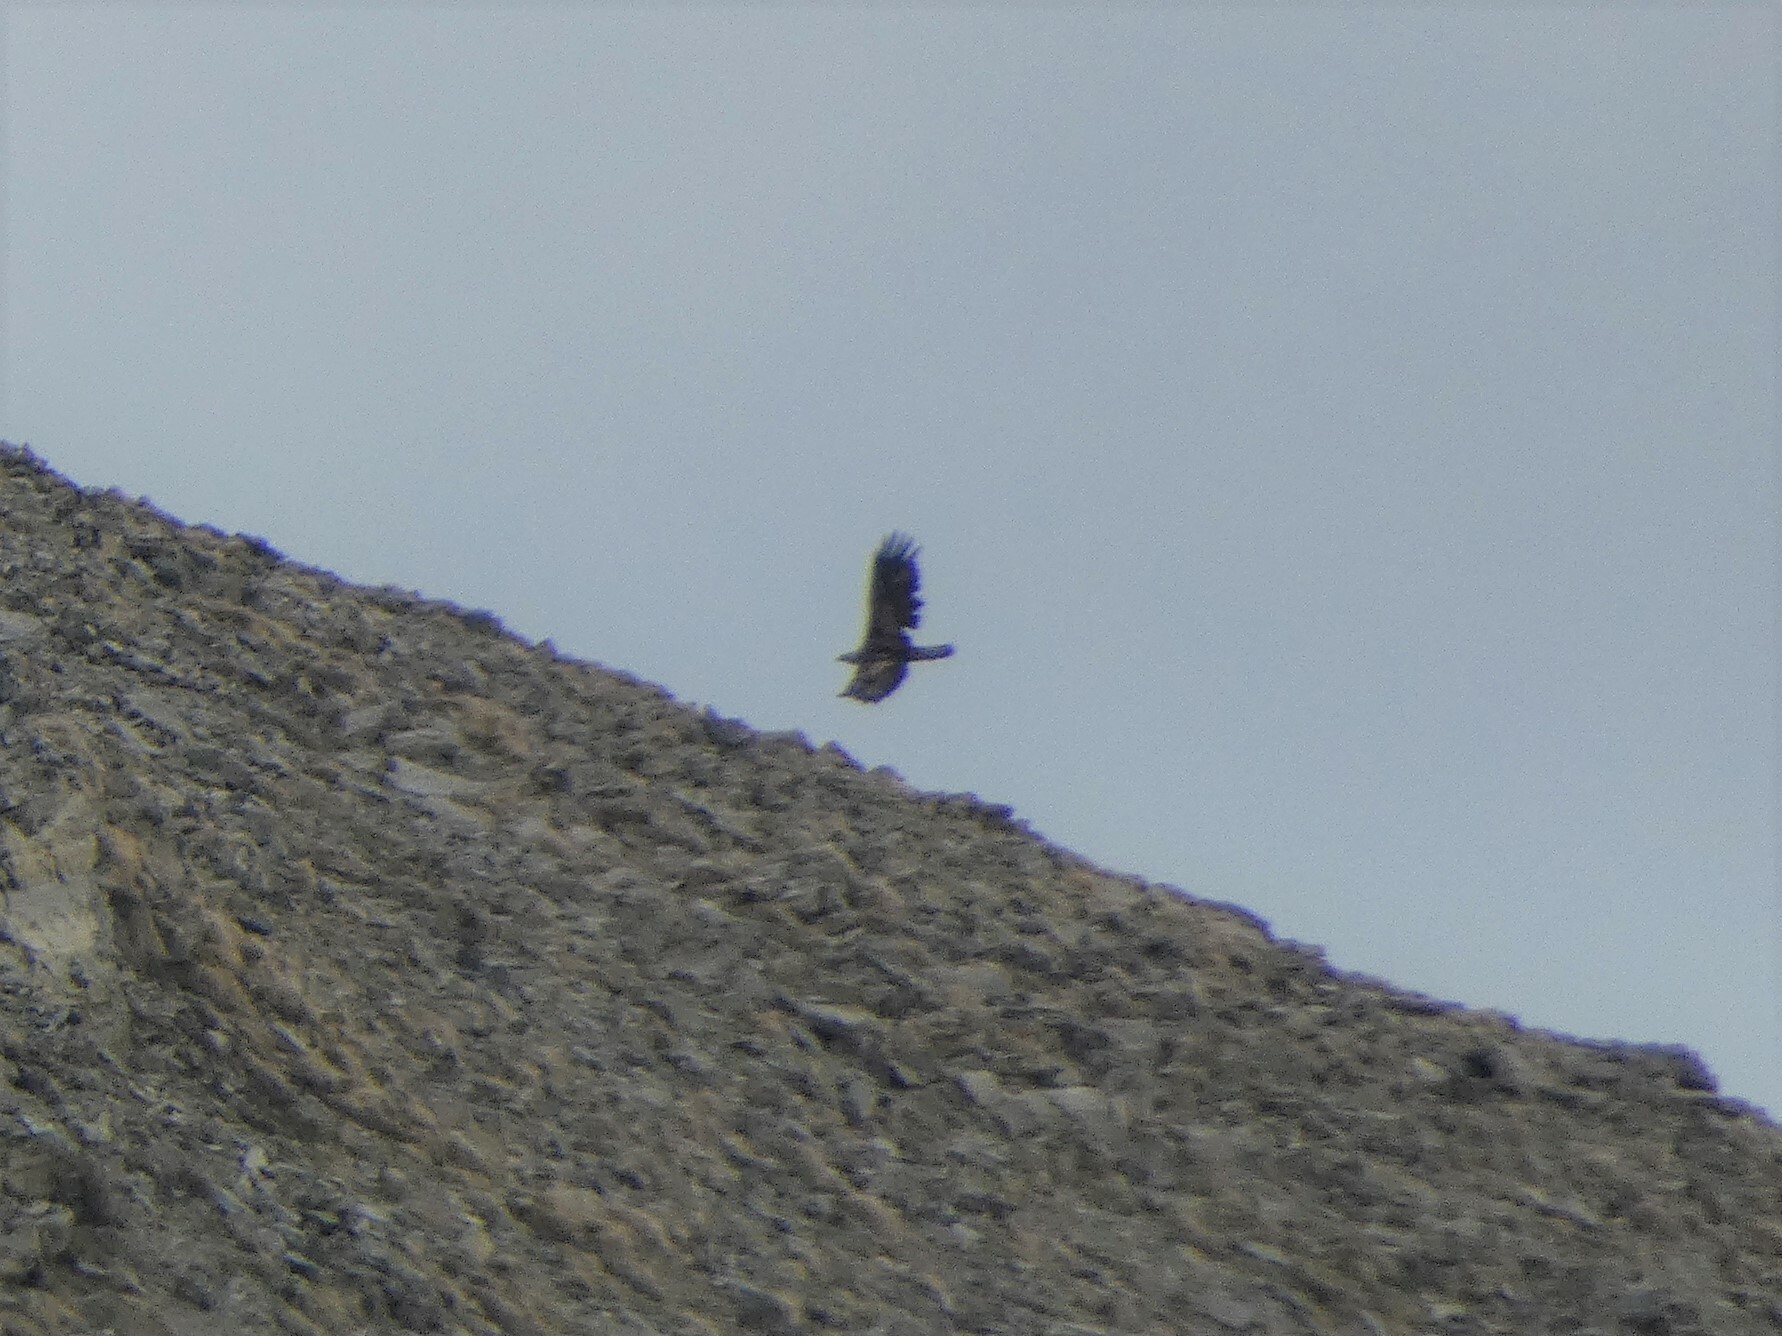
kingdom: Animalia
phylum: Chordata
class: Aves
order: Accipitriformes
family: Accipitridae
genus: Aquila
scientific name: Aquila chrysaetos
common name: Golden eagle
